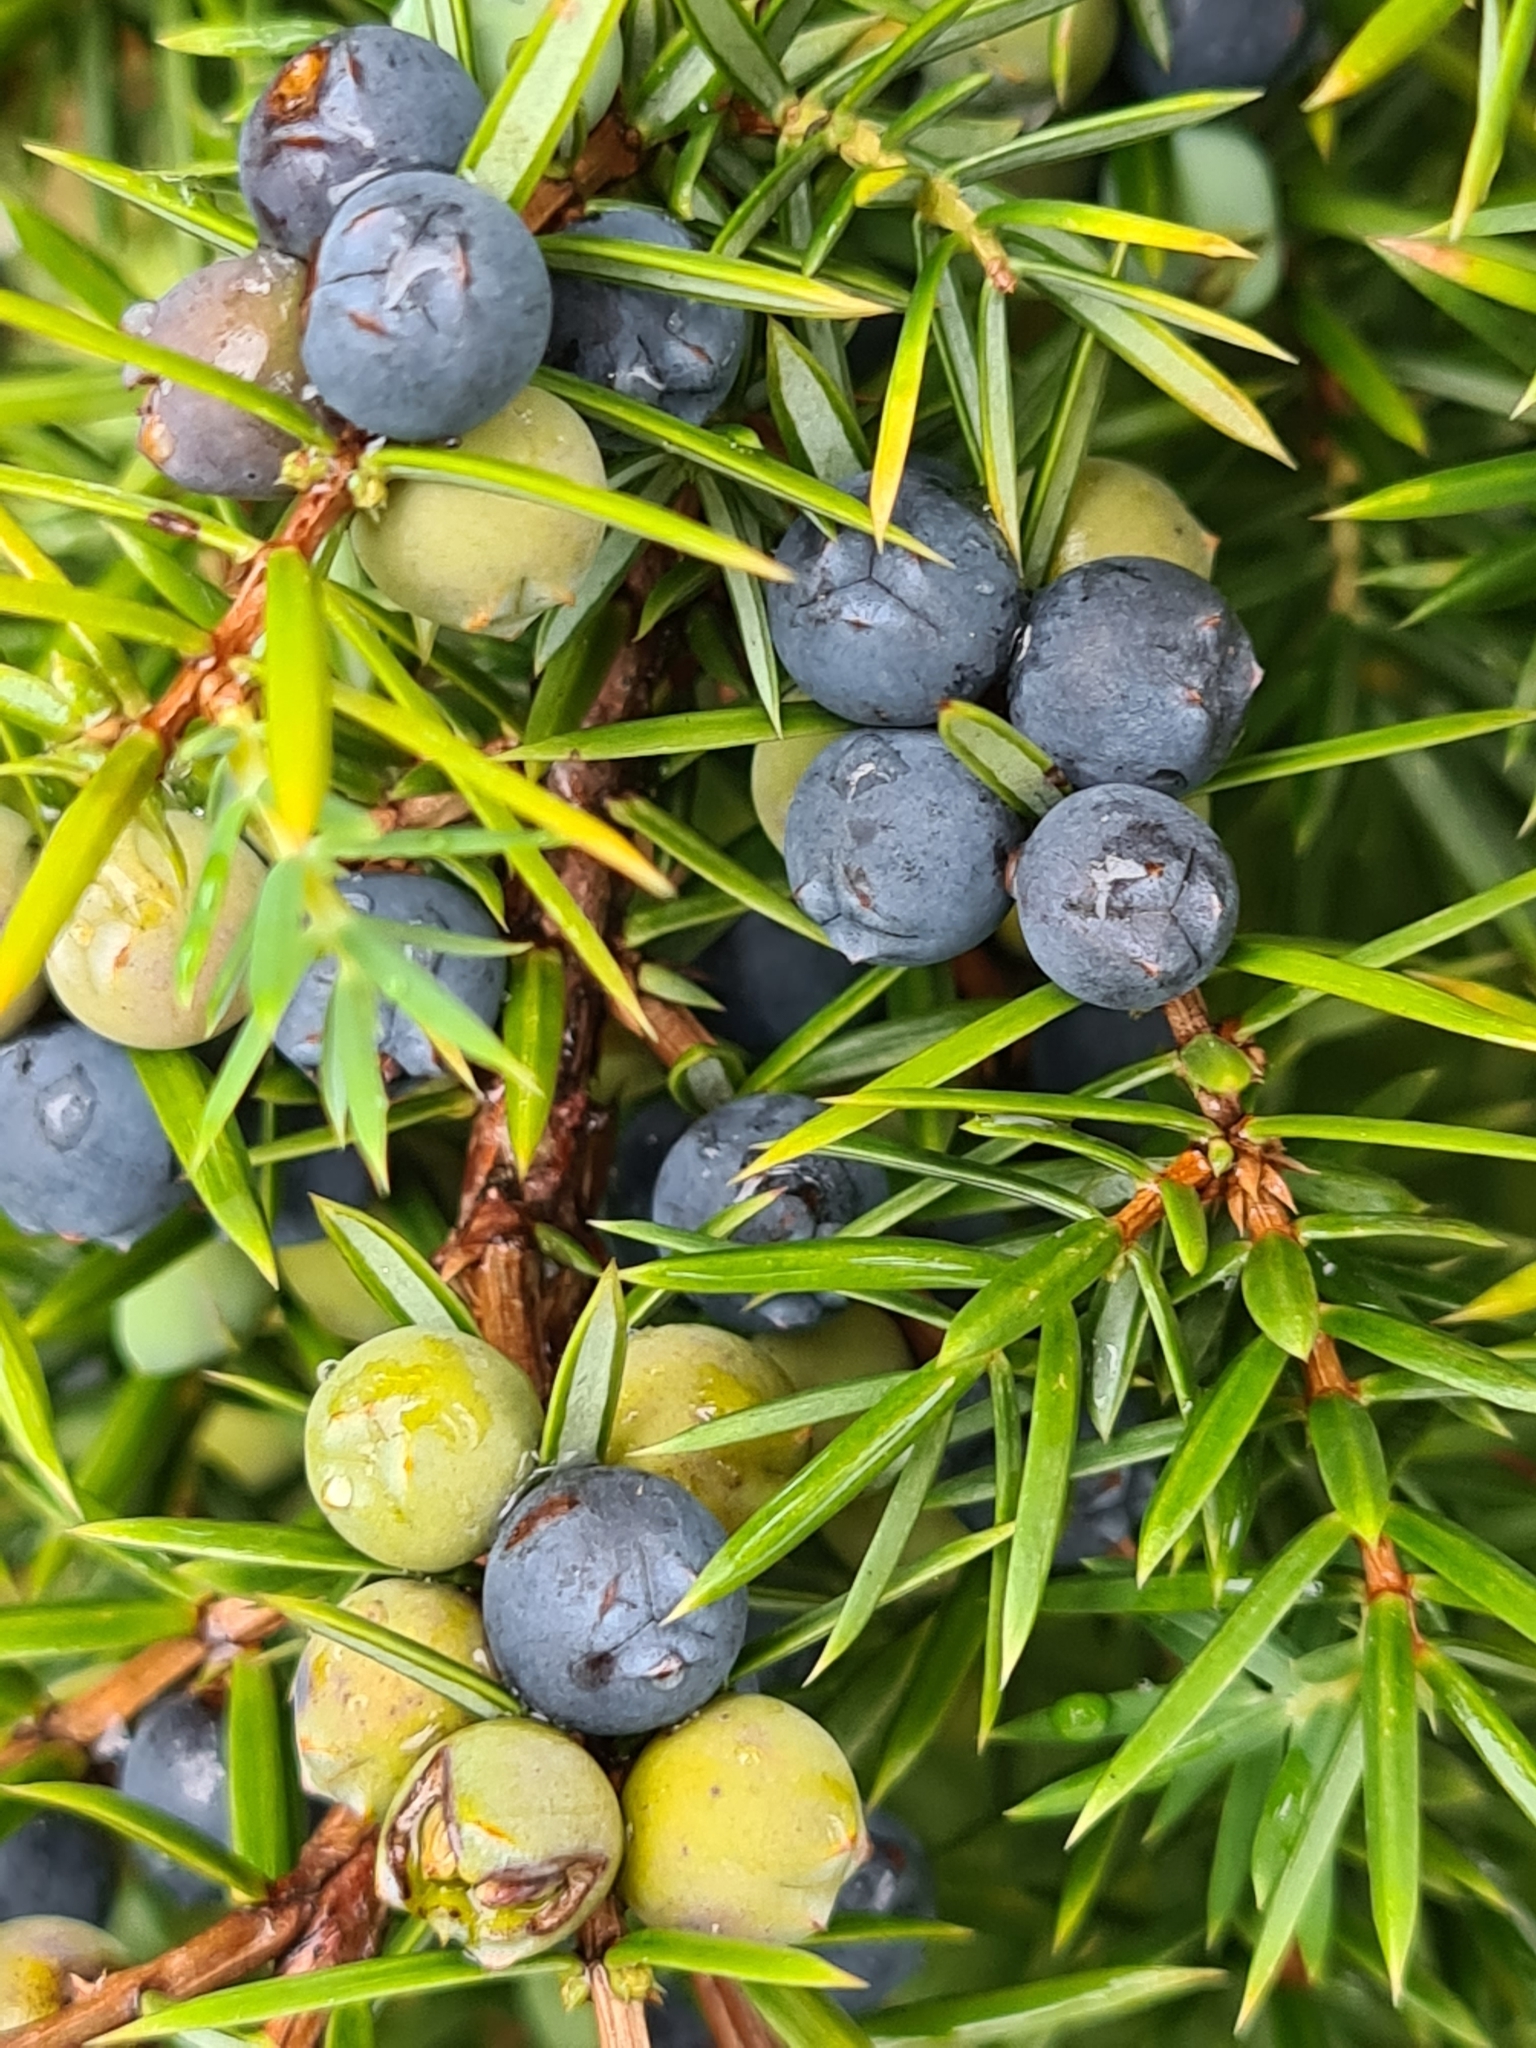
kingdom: Plantae
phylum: Tracheophyta
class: Pinopsida
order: Pinales
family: Cupressaceae
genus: Juniperus
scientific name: Juniperus communis
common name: Common juniper
